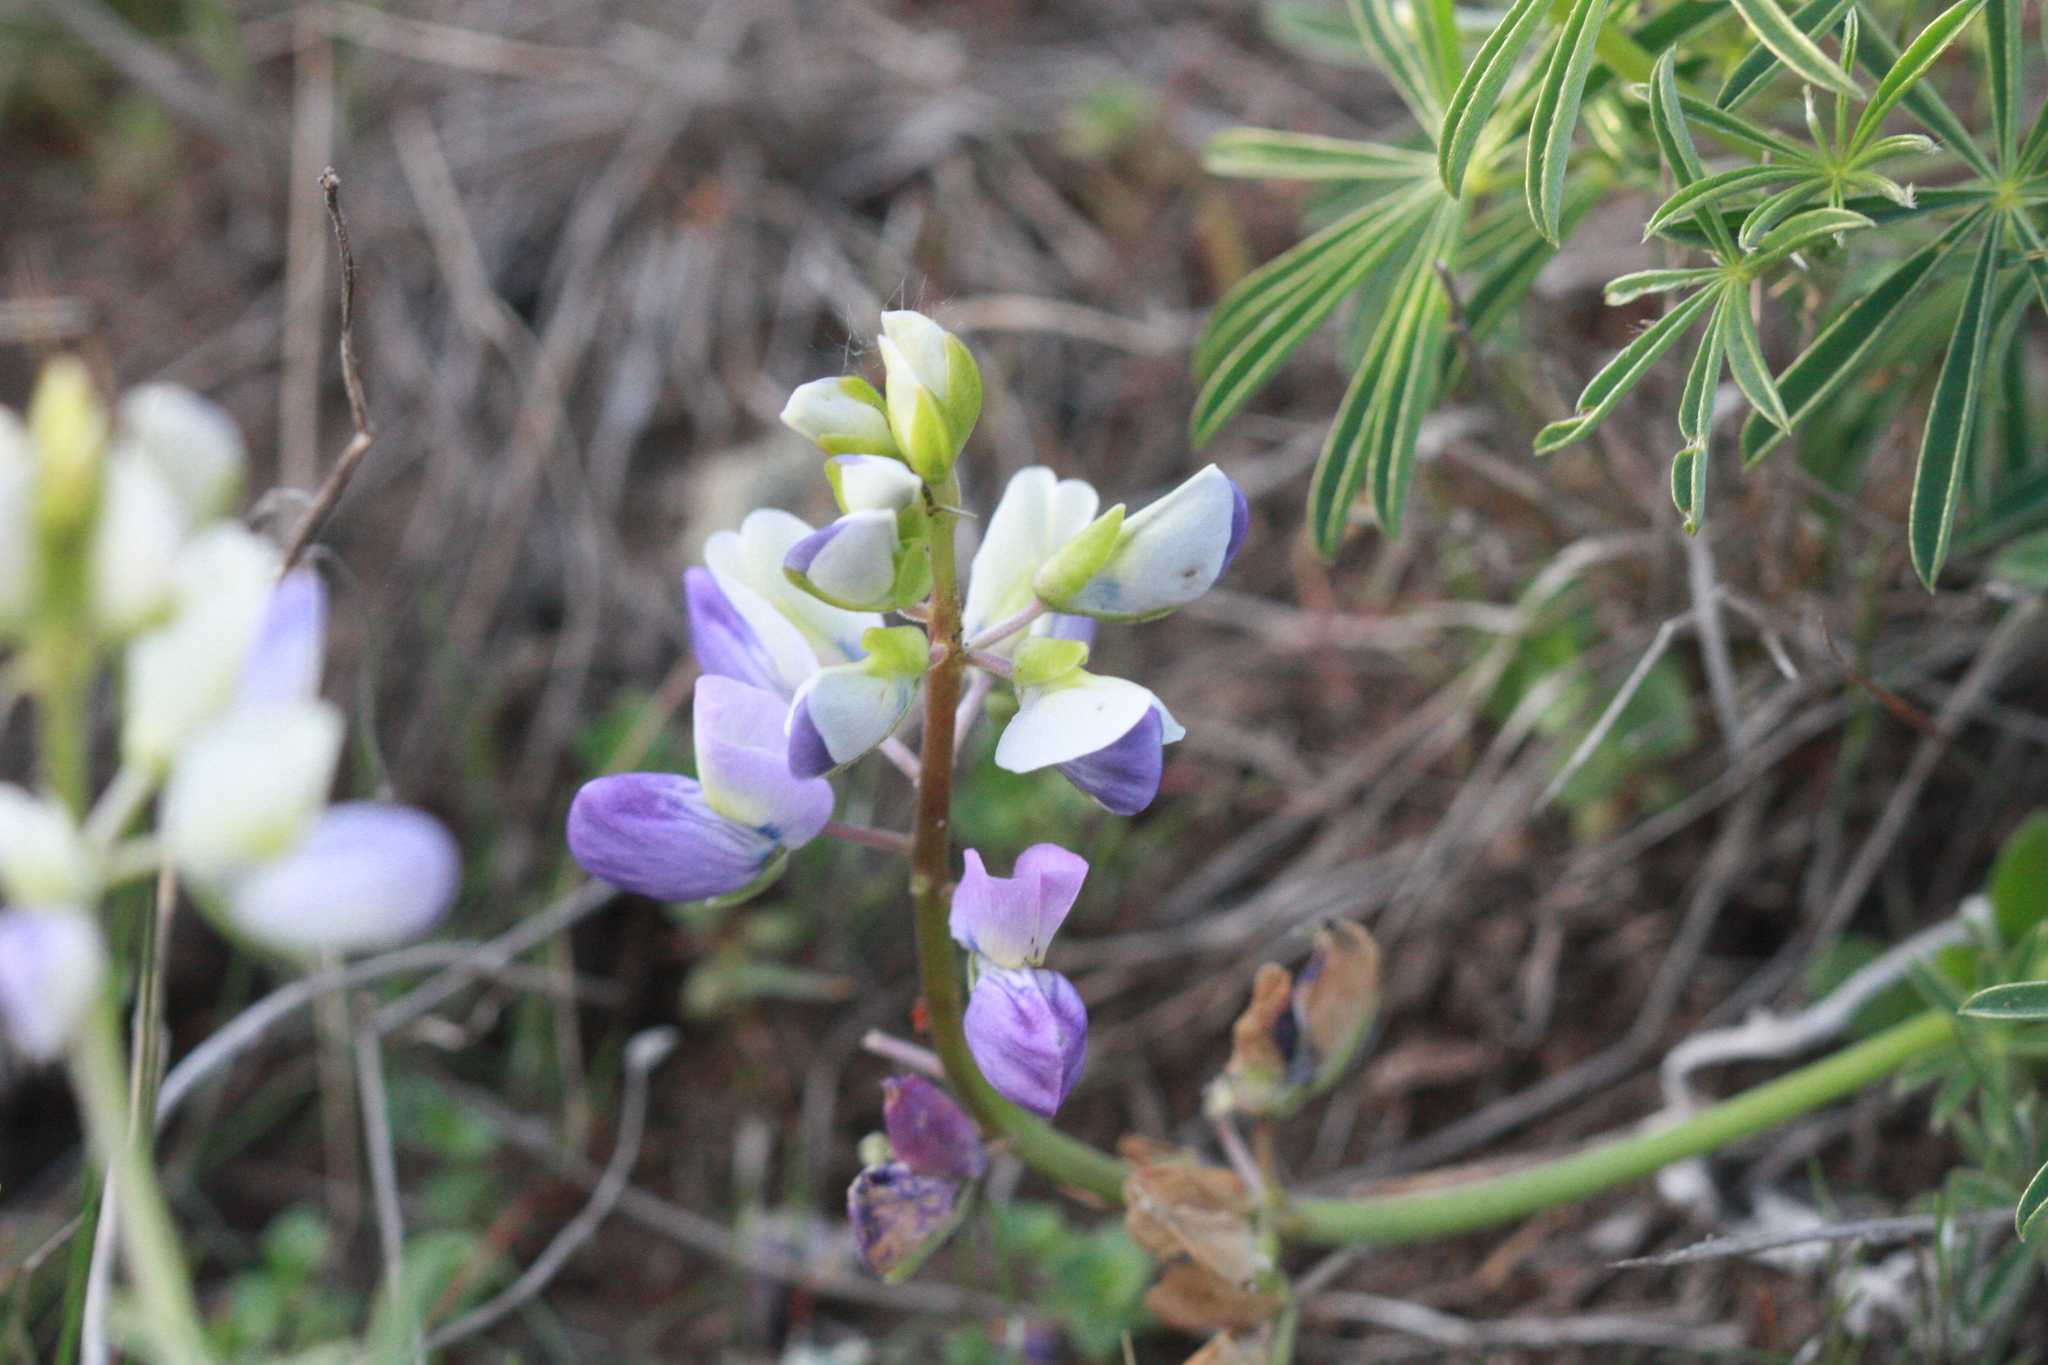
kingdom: Plantae
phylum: Tracheophyta
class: Magnoliopsida
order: Fabales
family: Fabaceae
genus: Lupinus
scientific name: Lupinus variicolor
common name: Lindley's varied lupine
